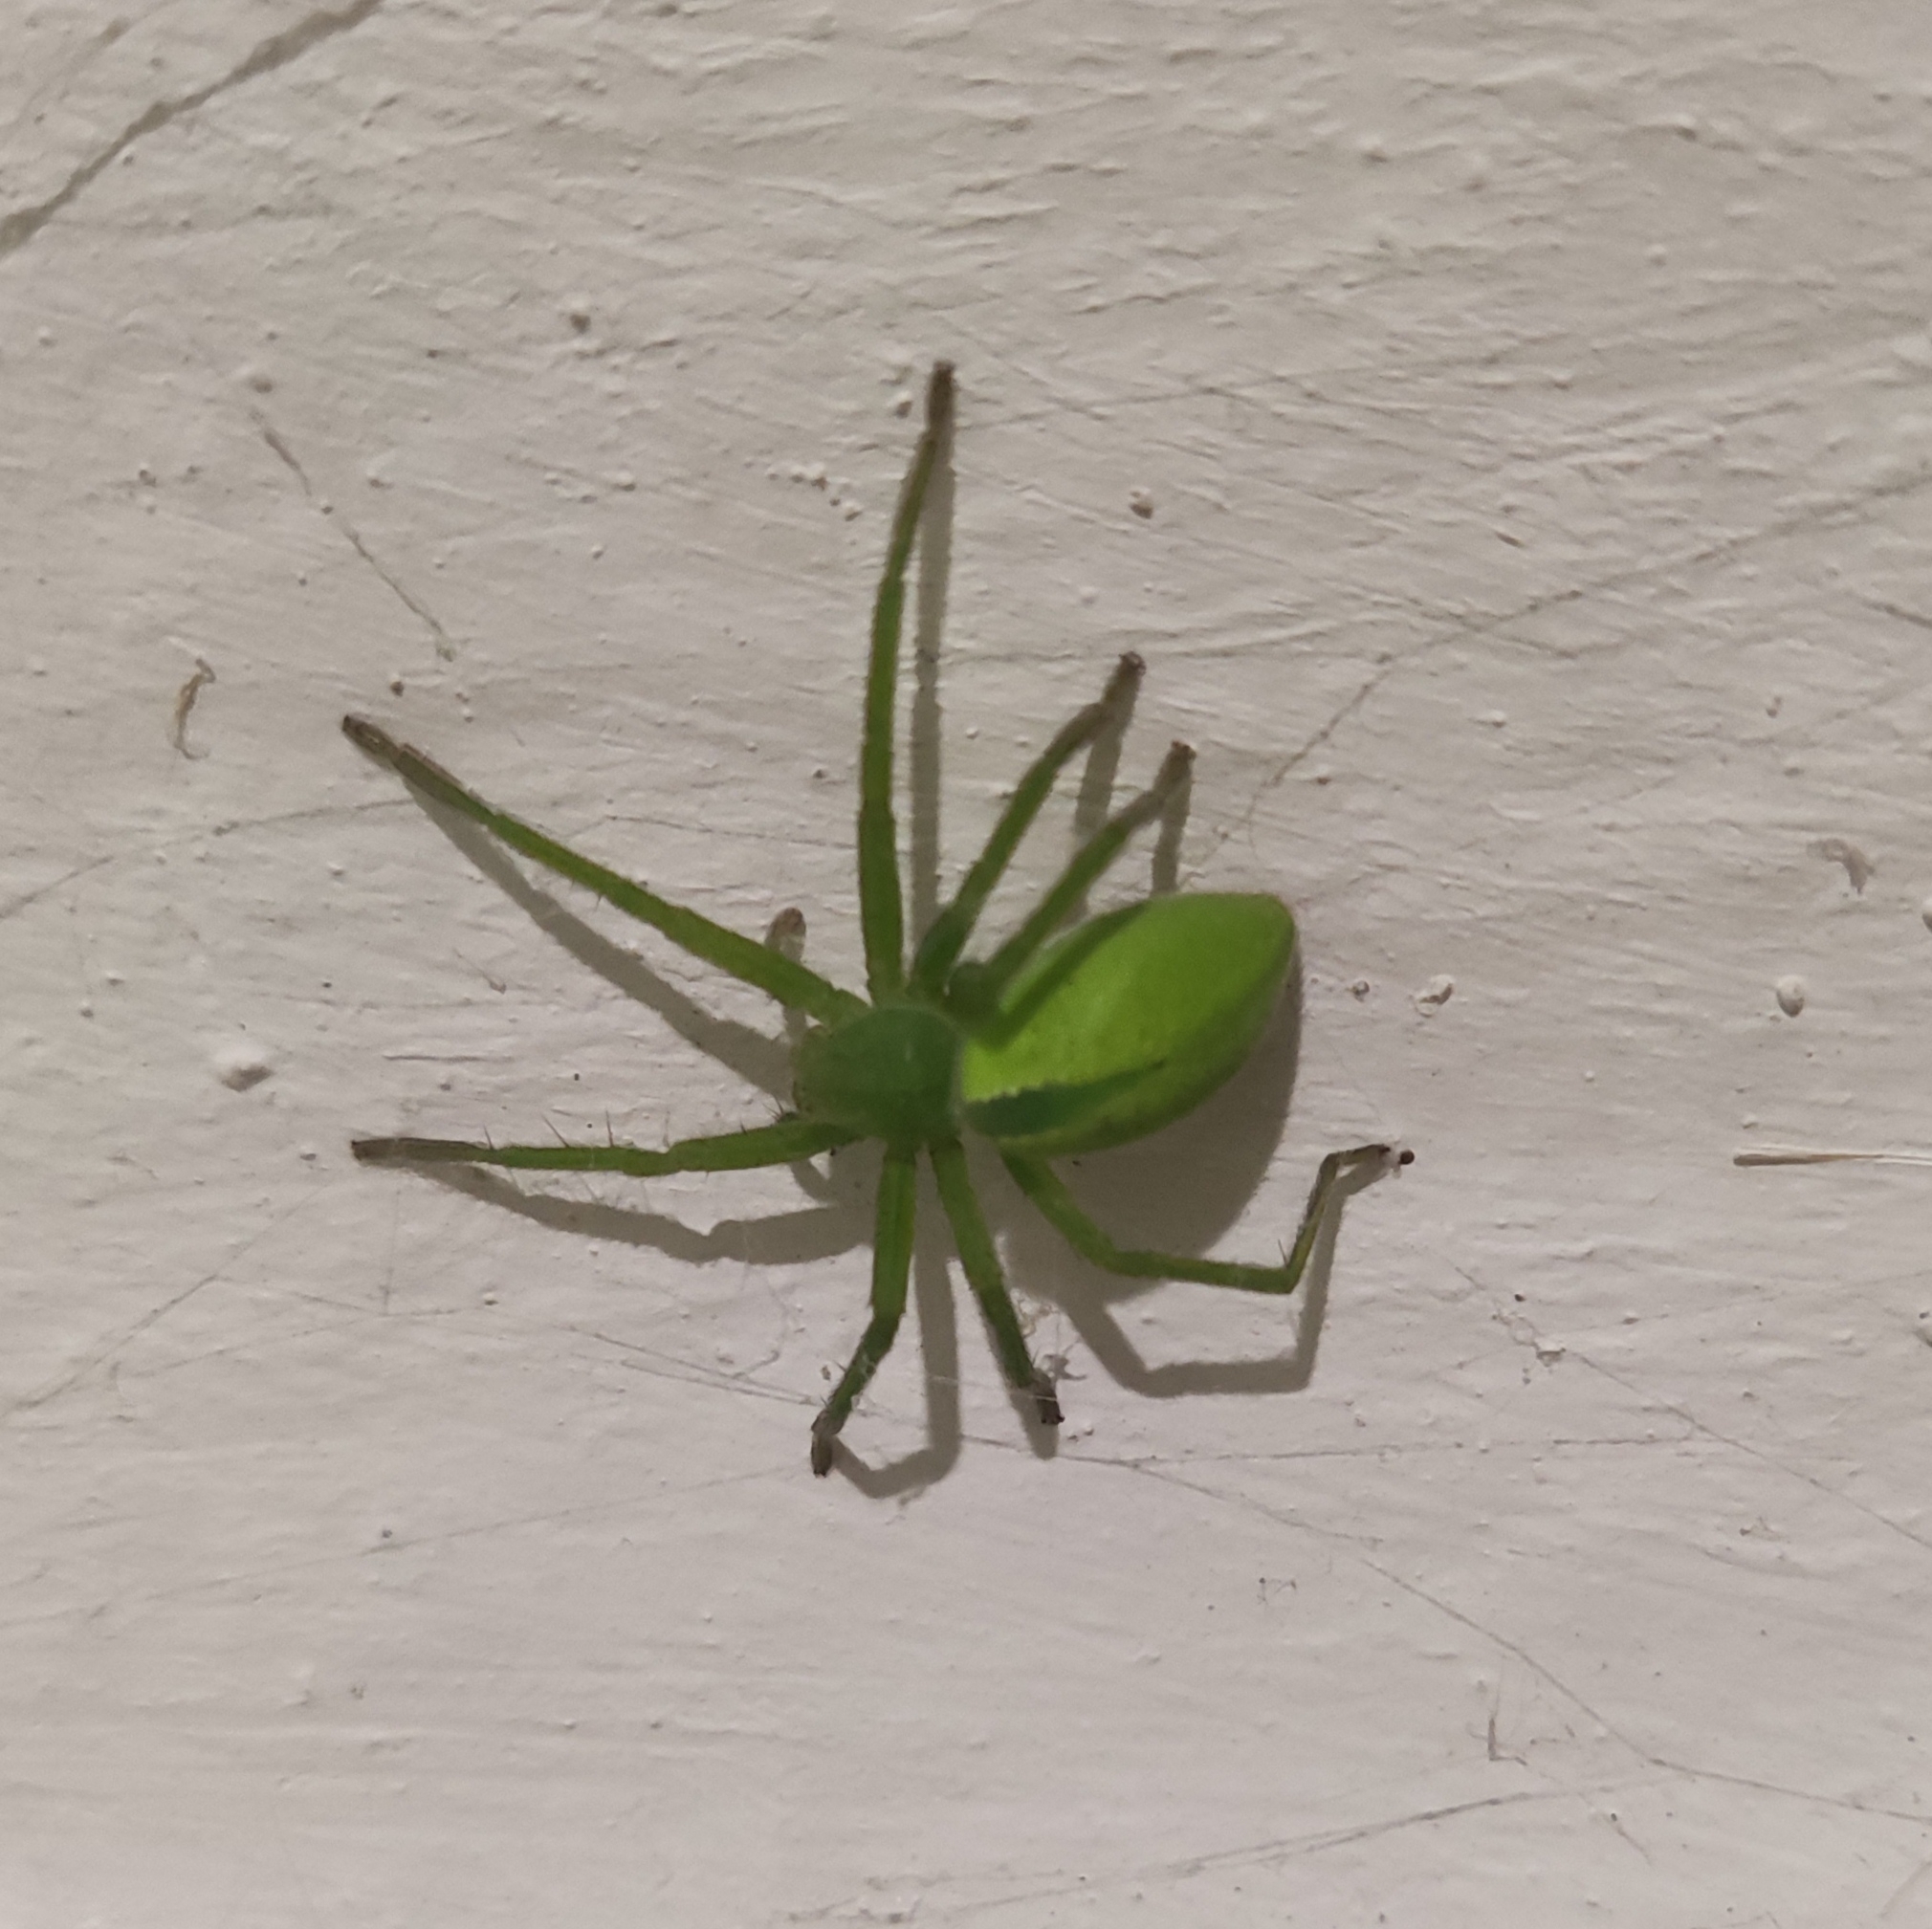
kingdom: Animalia
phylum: Arthropoda
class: Arachnida
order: Araneae
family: Sparassidae
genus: Micrommata
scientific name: Micrommata virescens
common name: Green spider
